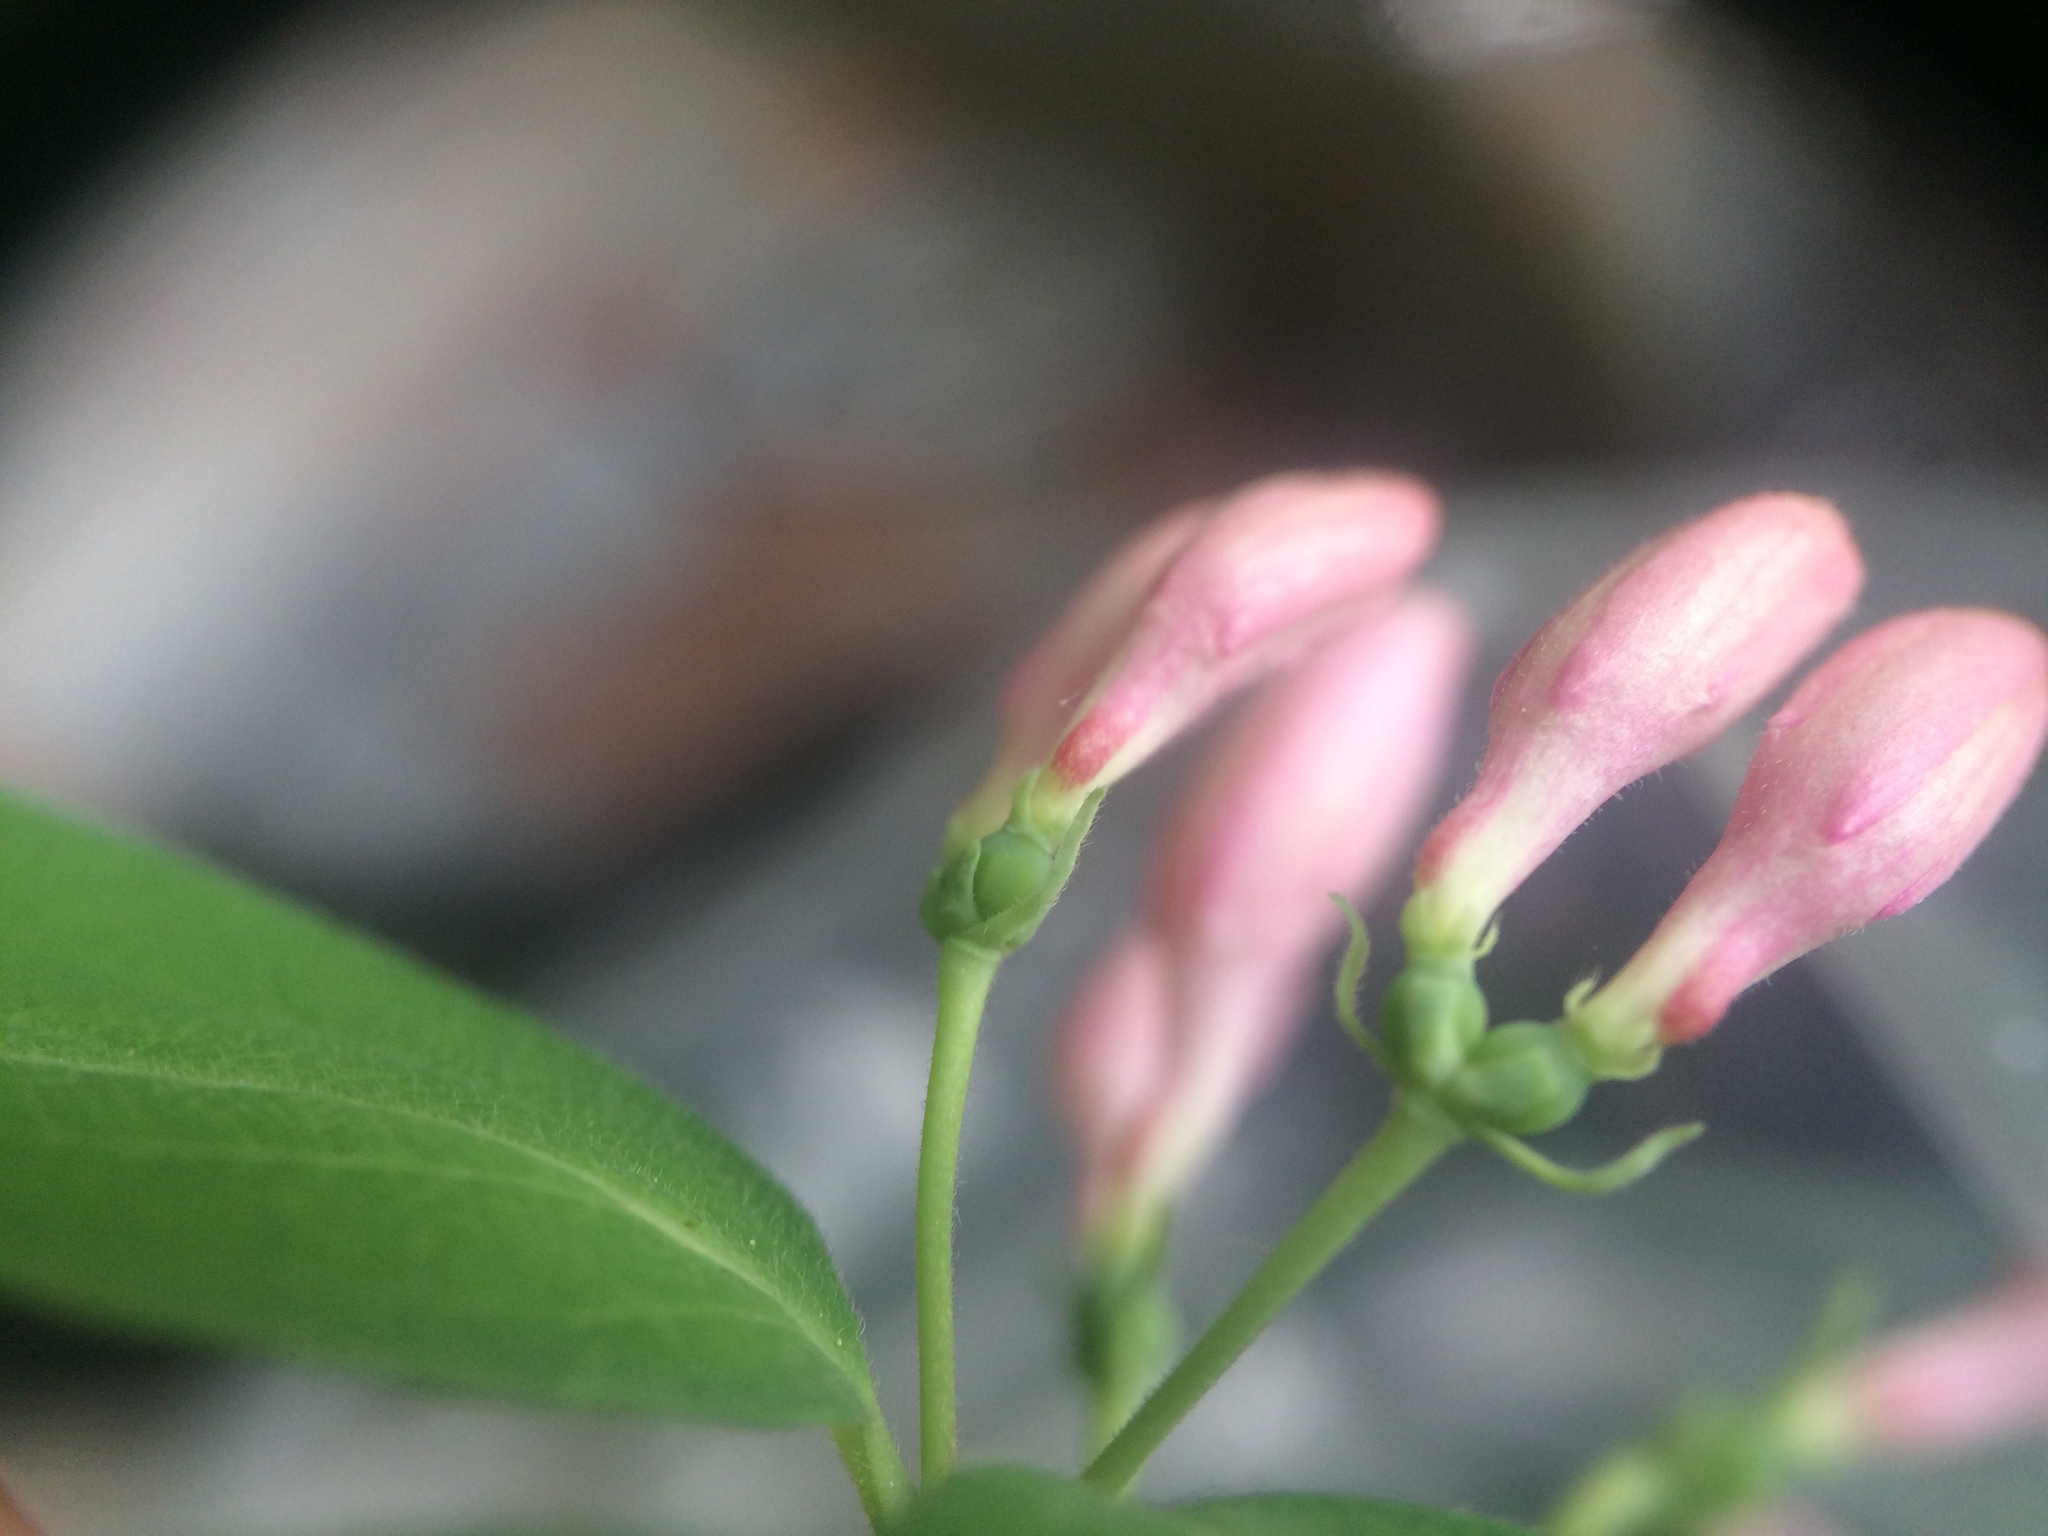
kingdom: Plantae
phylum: Tracheophyta
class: Magnoliopsida
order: Dipsacales
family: Caprifoliaceae
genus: Lonicera
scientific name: Lonicera bella
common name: Bell's honeysuckle
